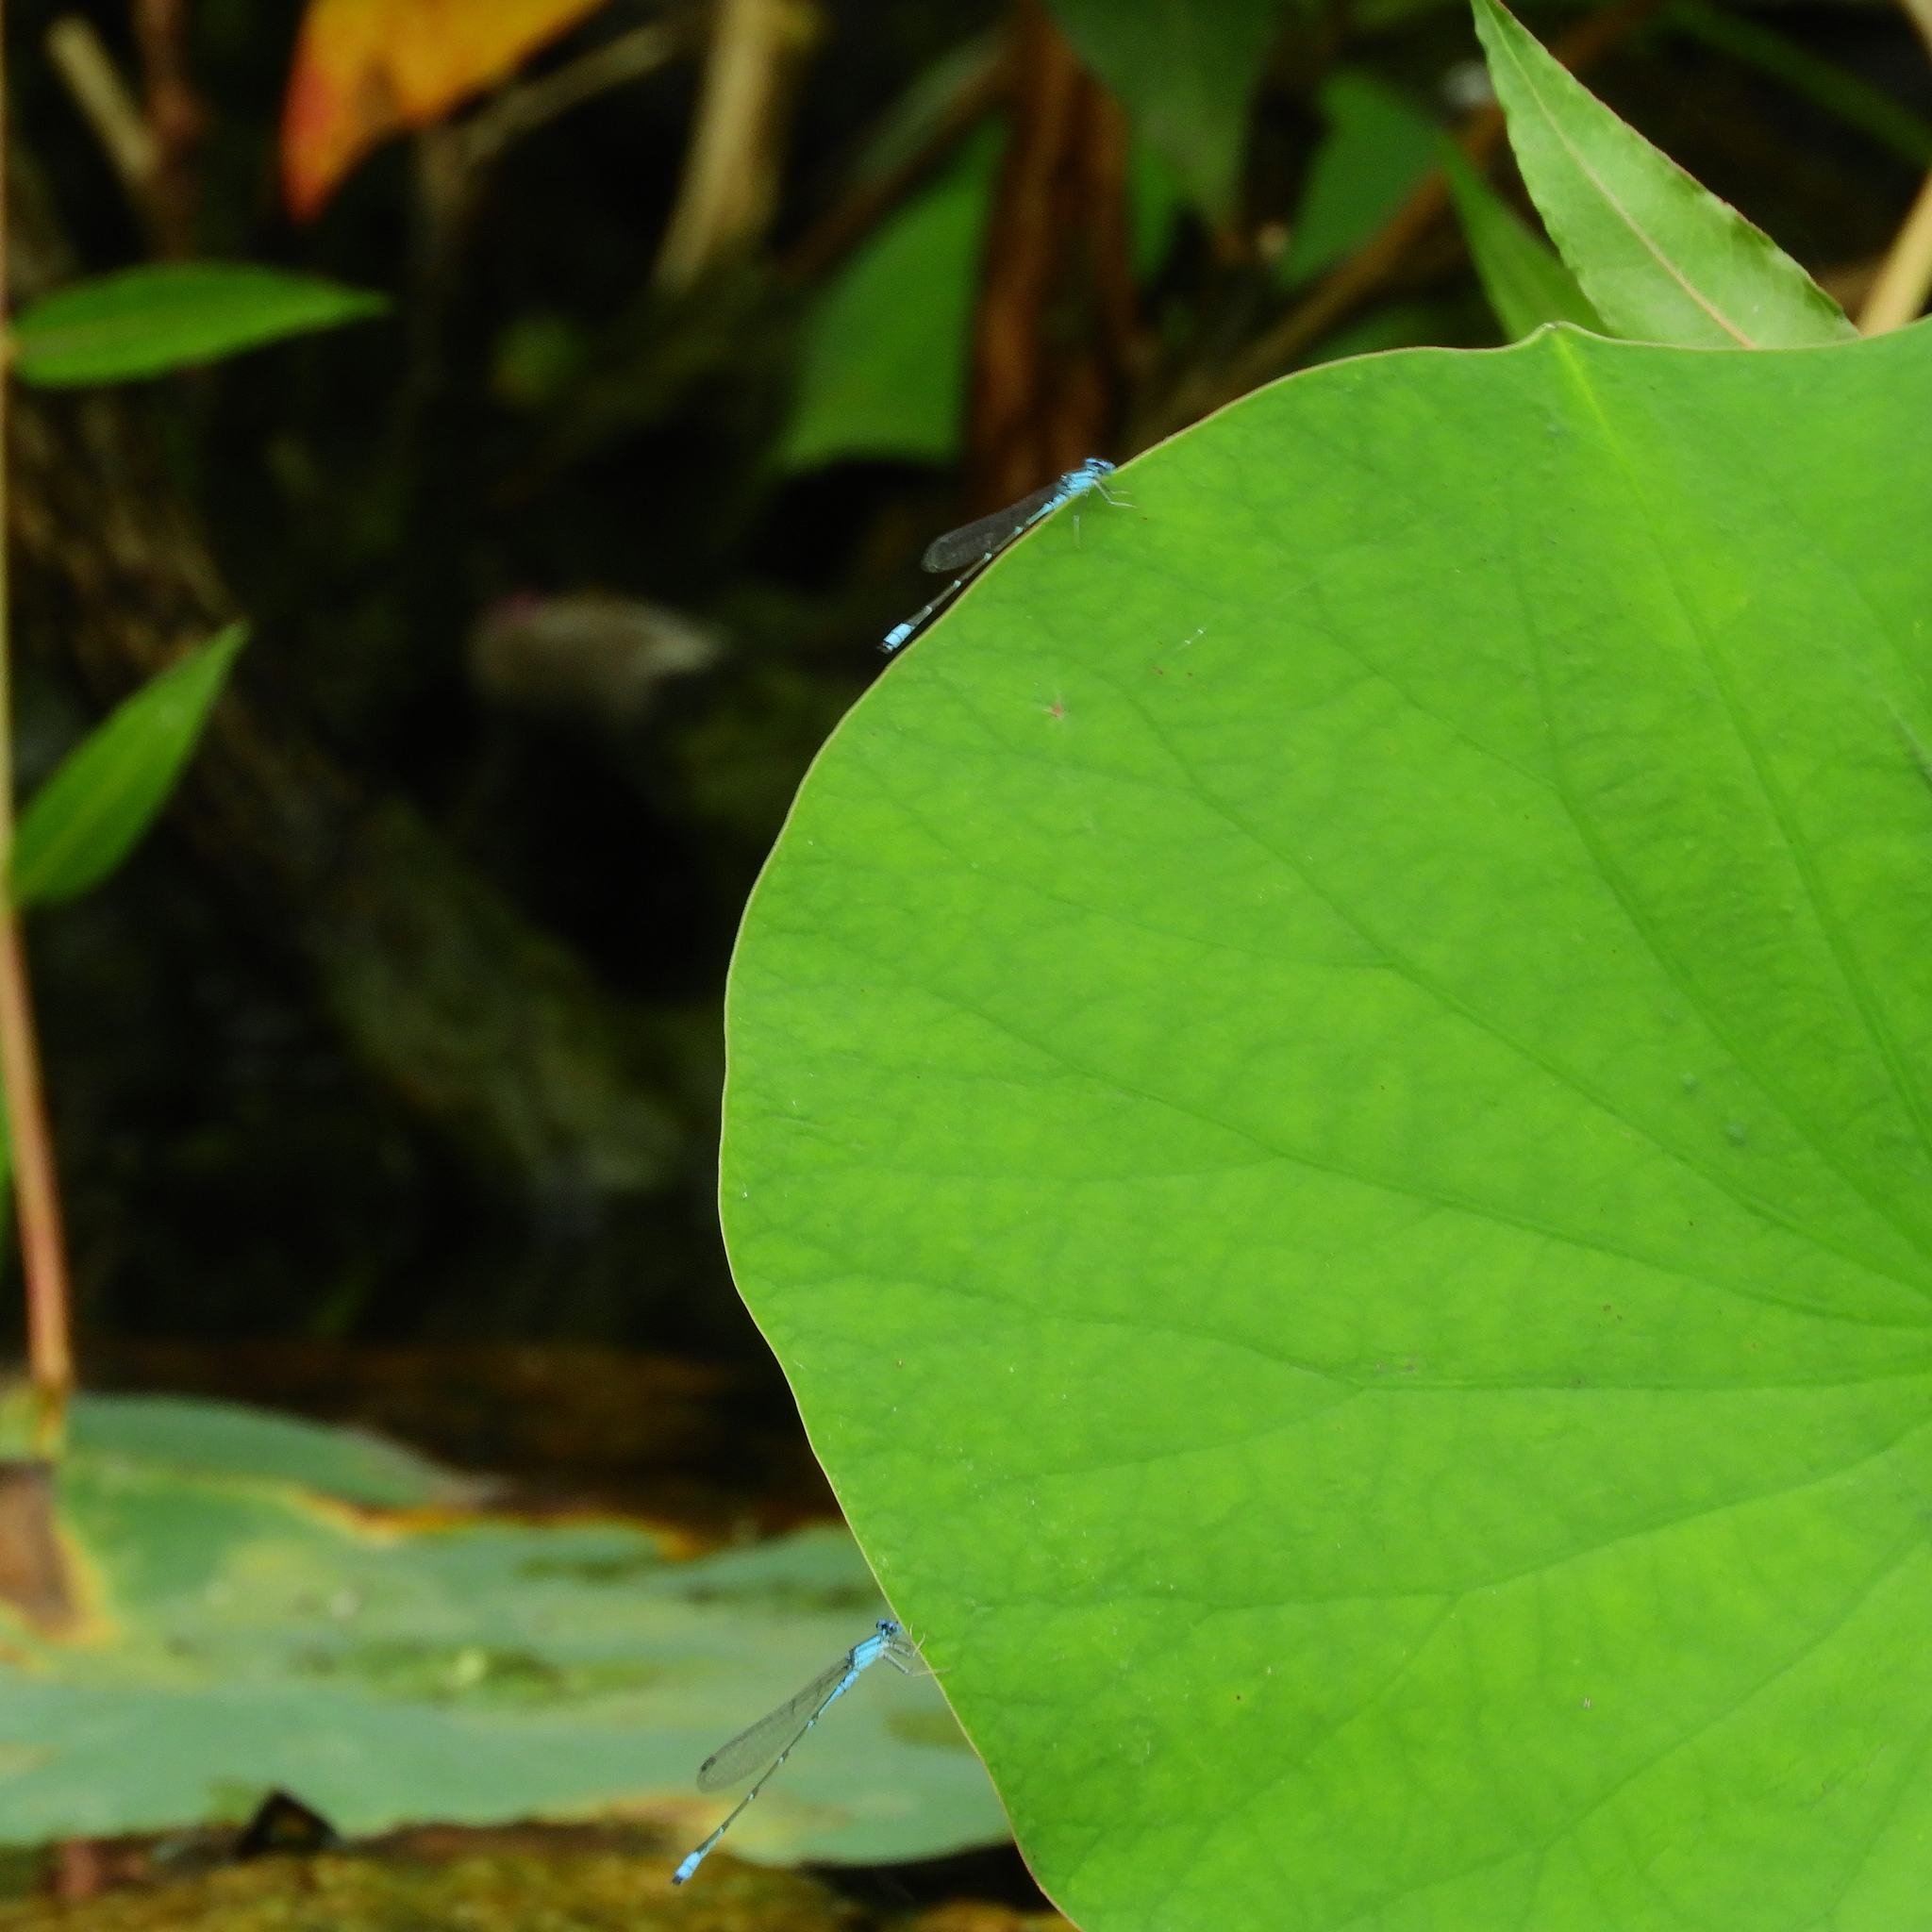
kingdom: Animalia
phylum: Arthropoda
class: Insecta
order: Odonata
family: Coenagrionidae
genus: Enallagma
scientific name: Enallagma traviatum
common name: Slender bluet
